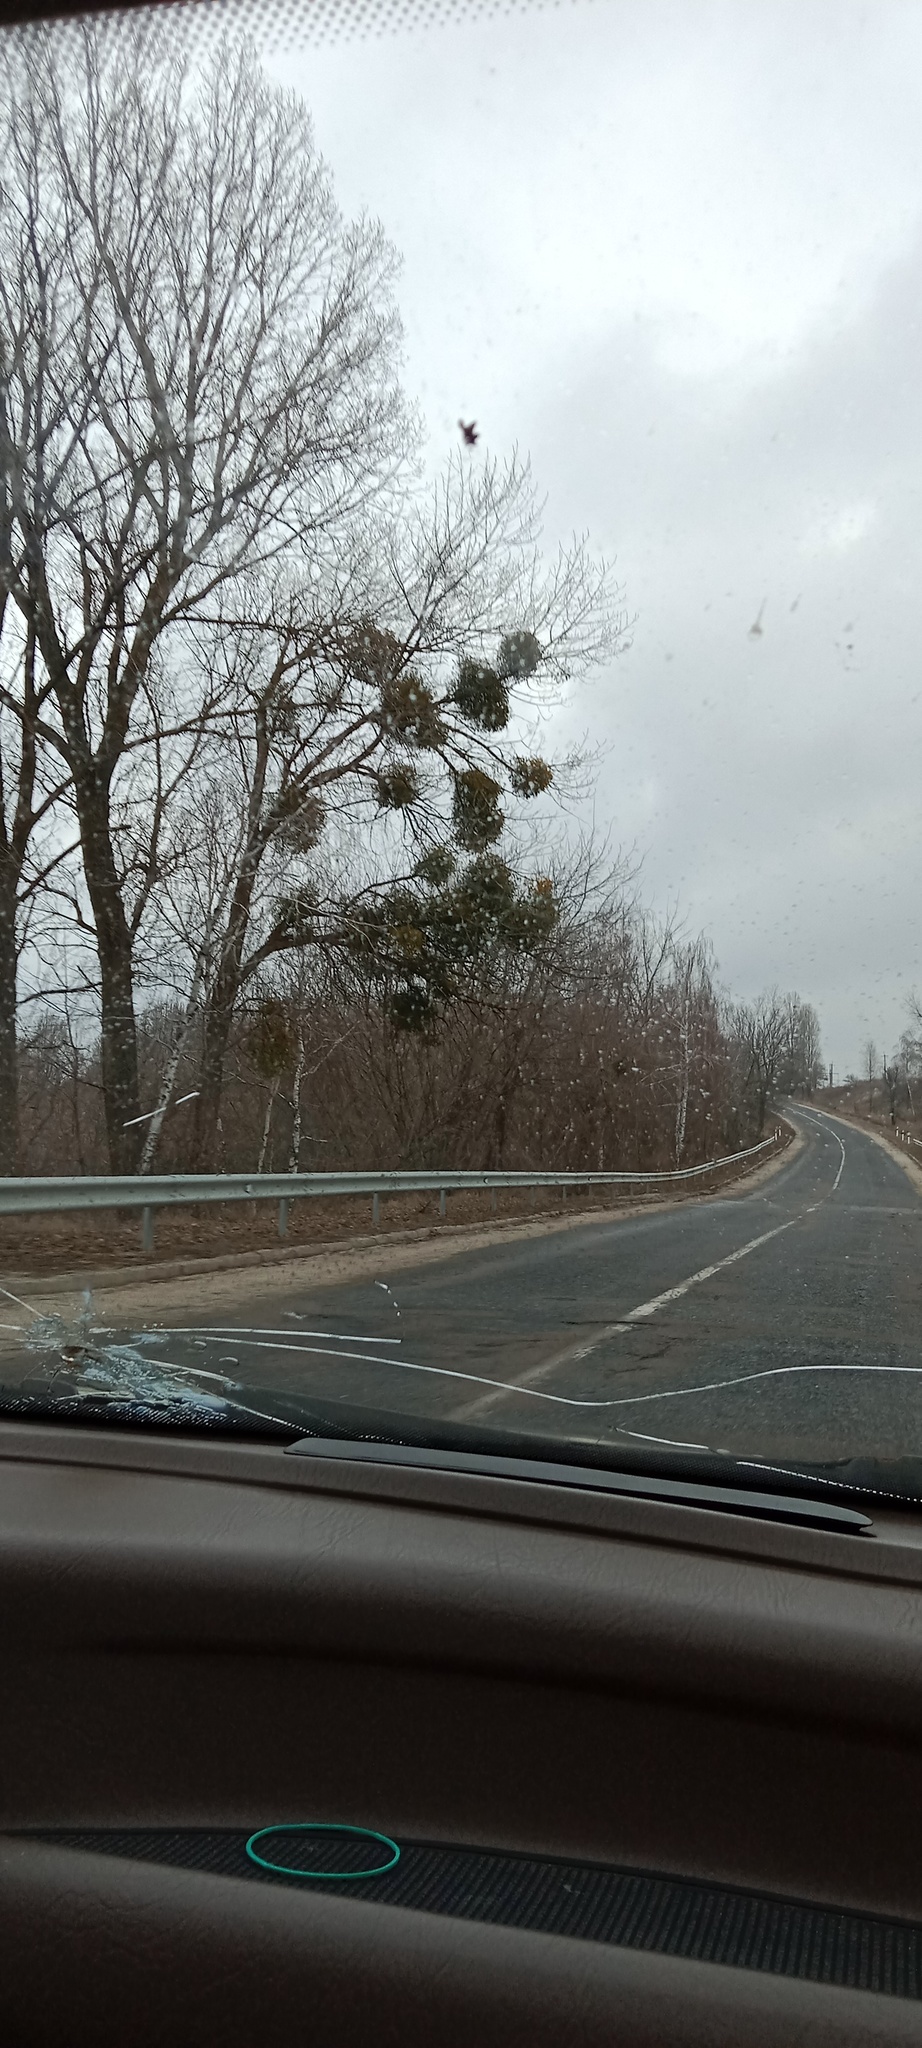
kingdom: Plantae
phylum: Tracheophyta
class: Magnoliopsida
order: Santalales
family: Viscaceae
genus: Viscum
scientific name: Viscum album
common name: Mistletoe
